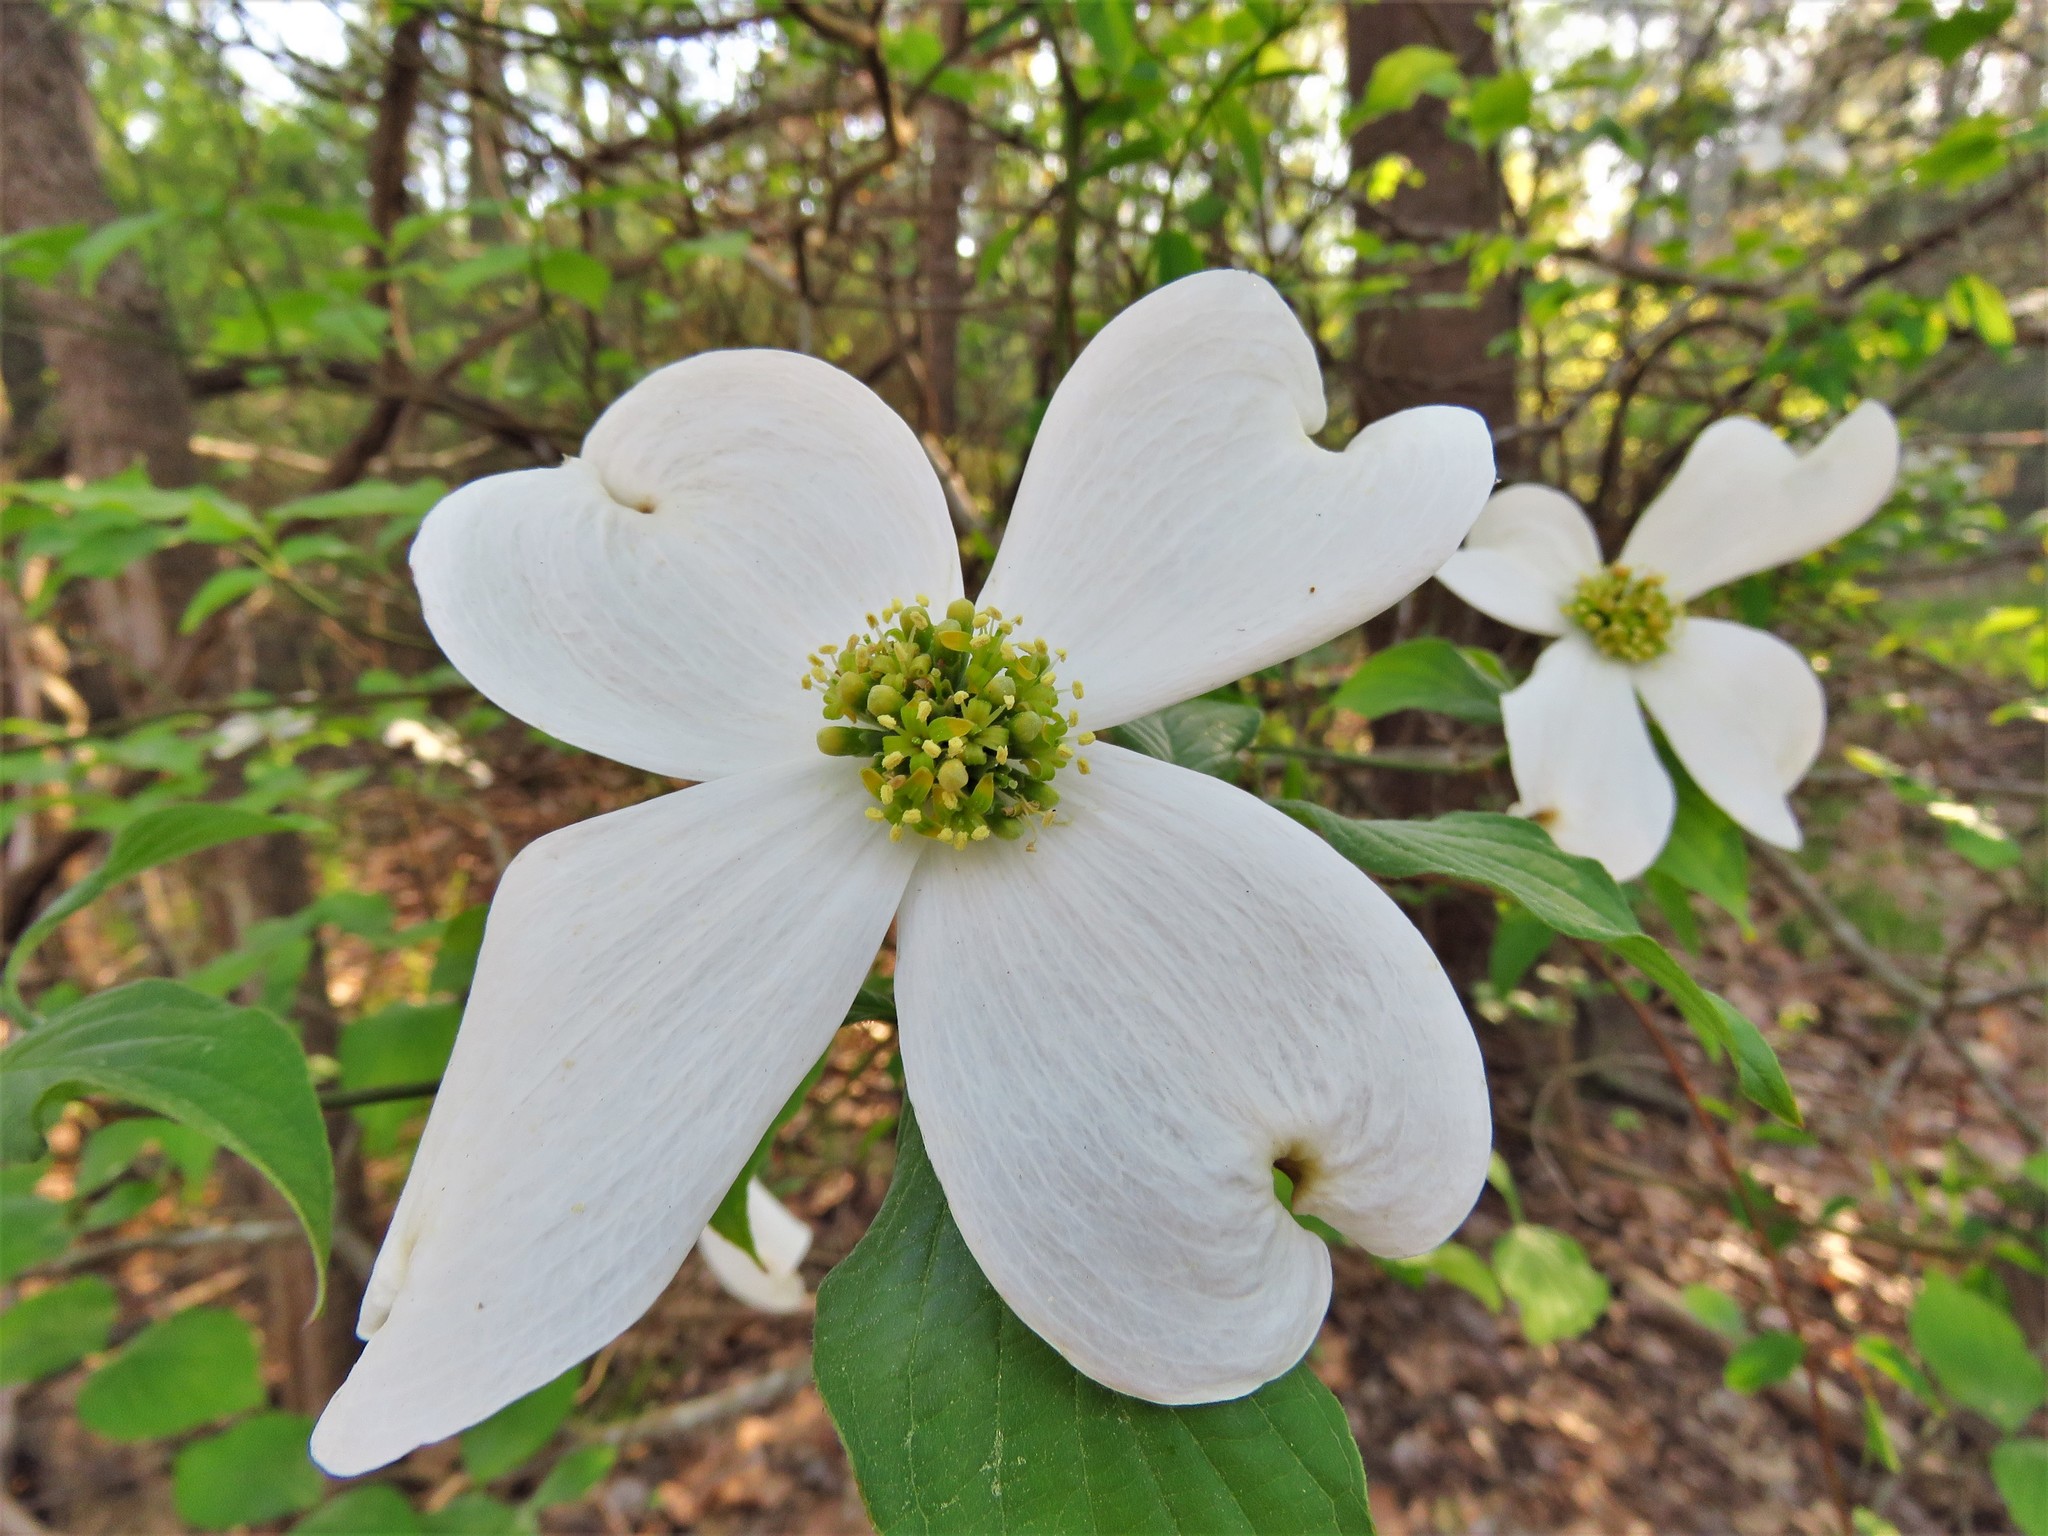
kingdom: Plantae
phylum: Tracheophyta
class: Magnoliopsida
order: Cornales
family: Cornaceae
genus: Cornus
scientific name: Cornus florida
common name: Flowering dogwood
